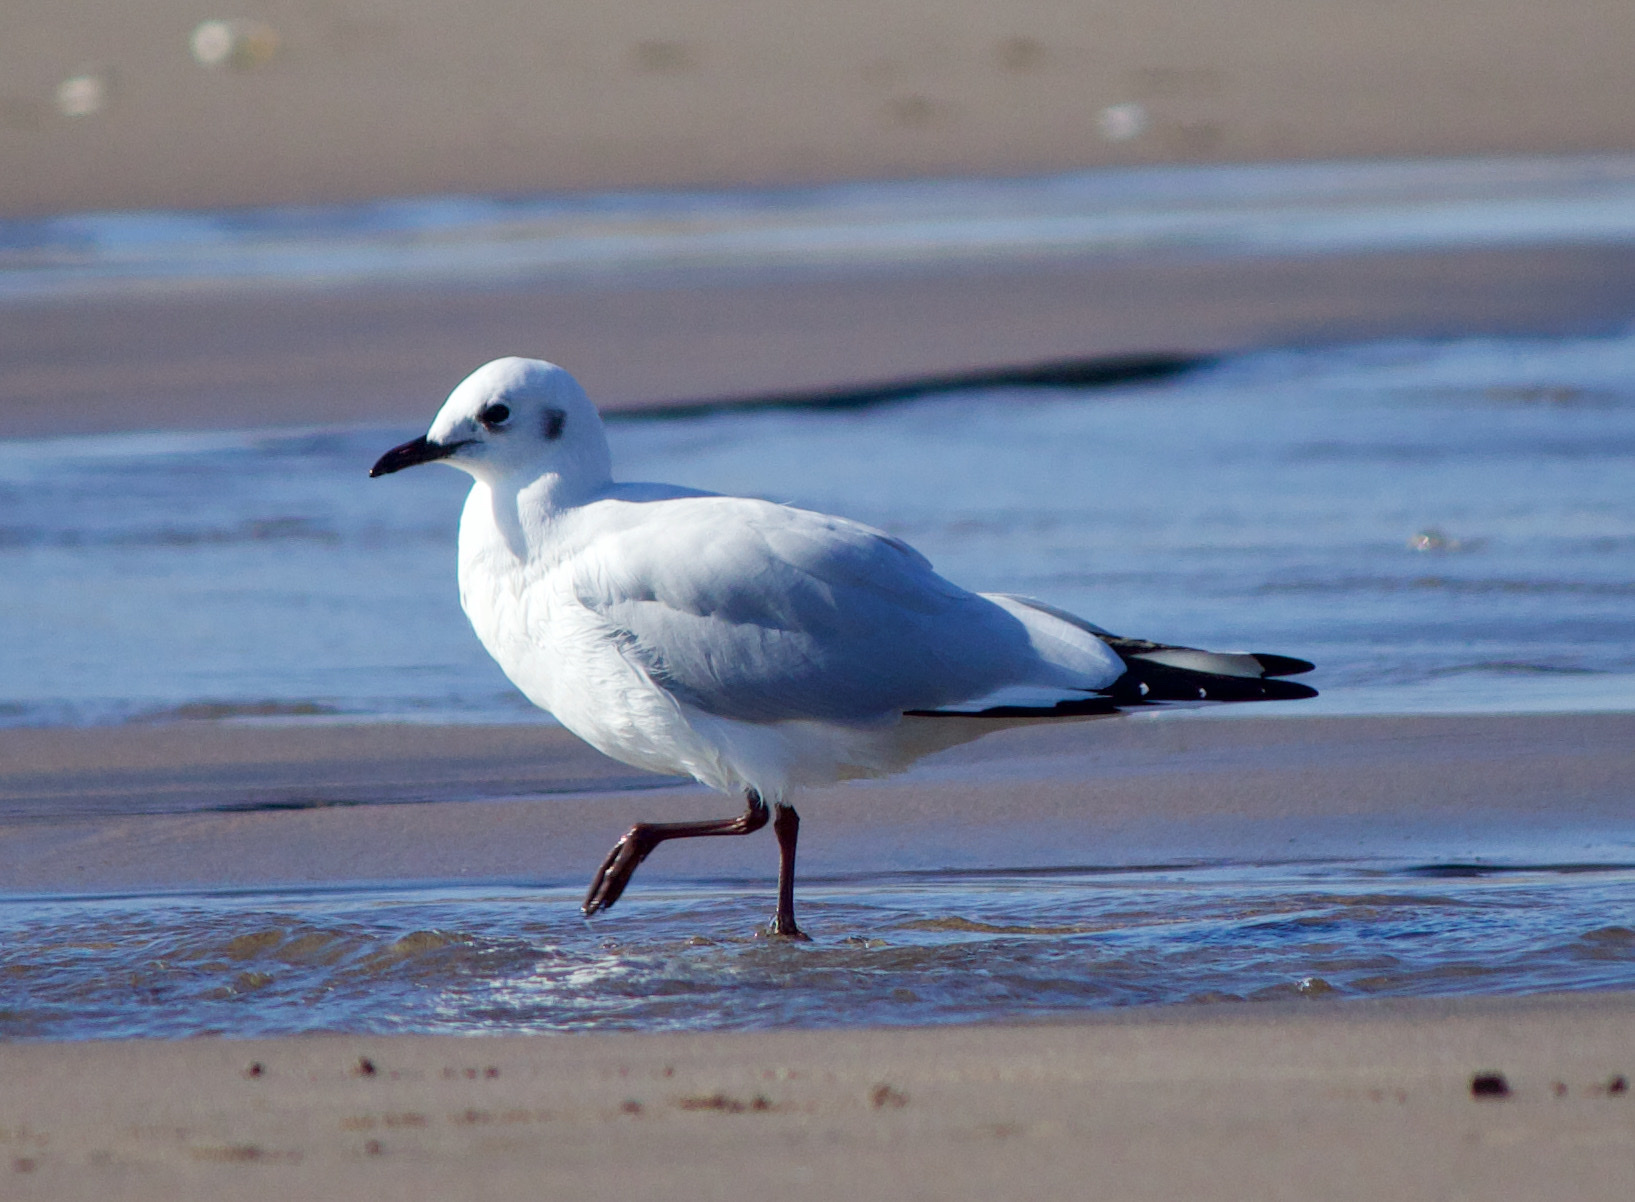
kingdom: Animalia
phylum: Chordata
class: Aves
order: Charadriiformes
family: Laridae
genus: Chroicocephalus
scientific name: Chroicocephalus serranus
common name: Andean gull
